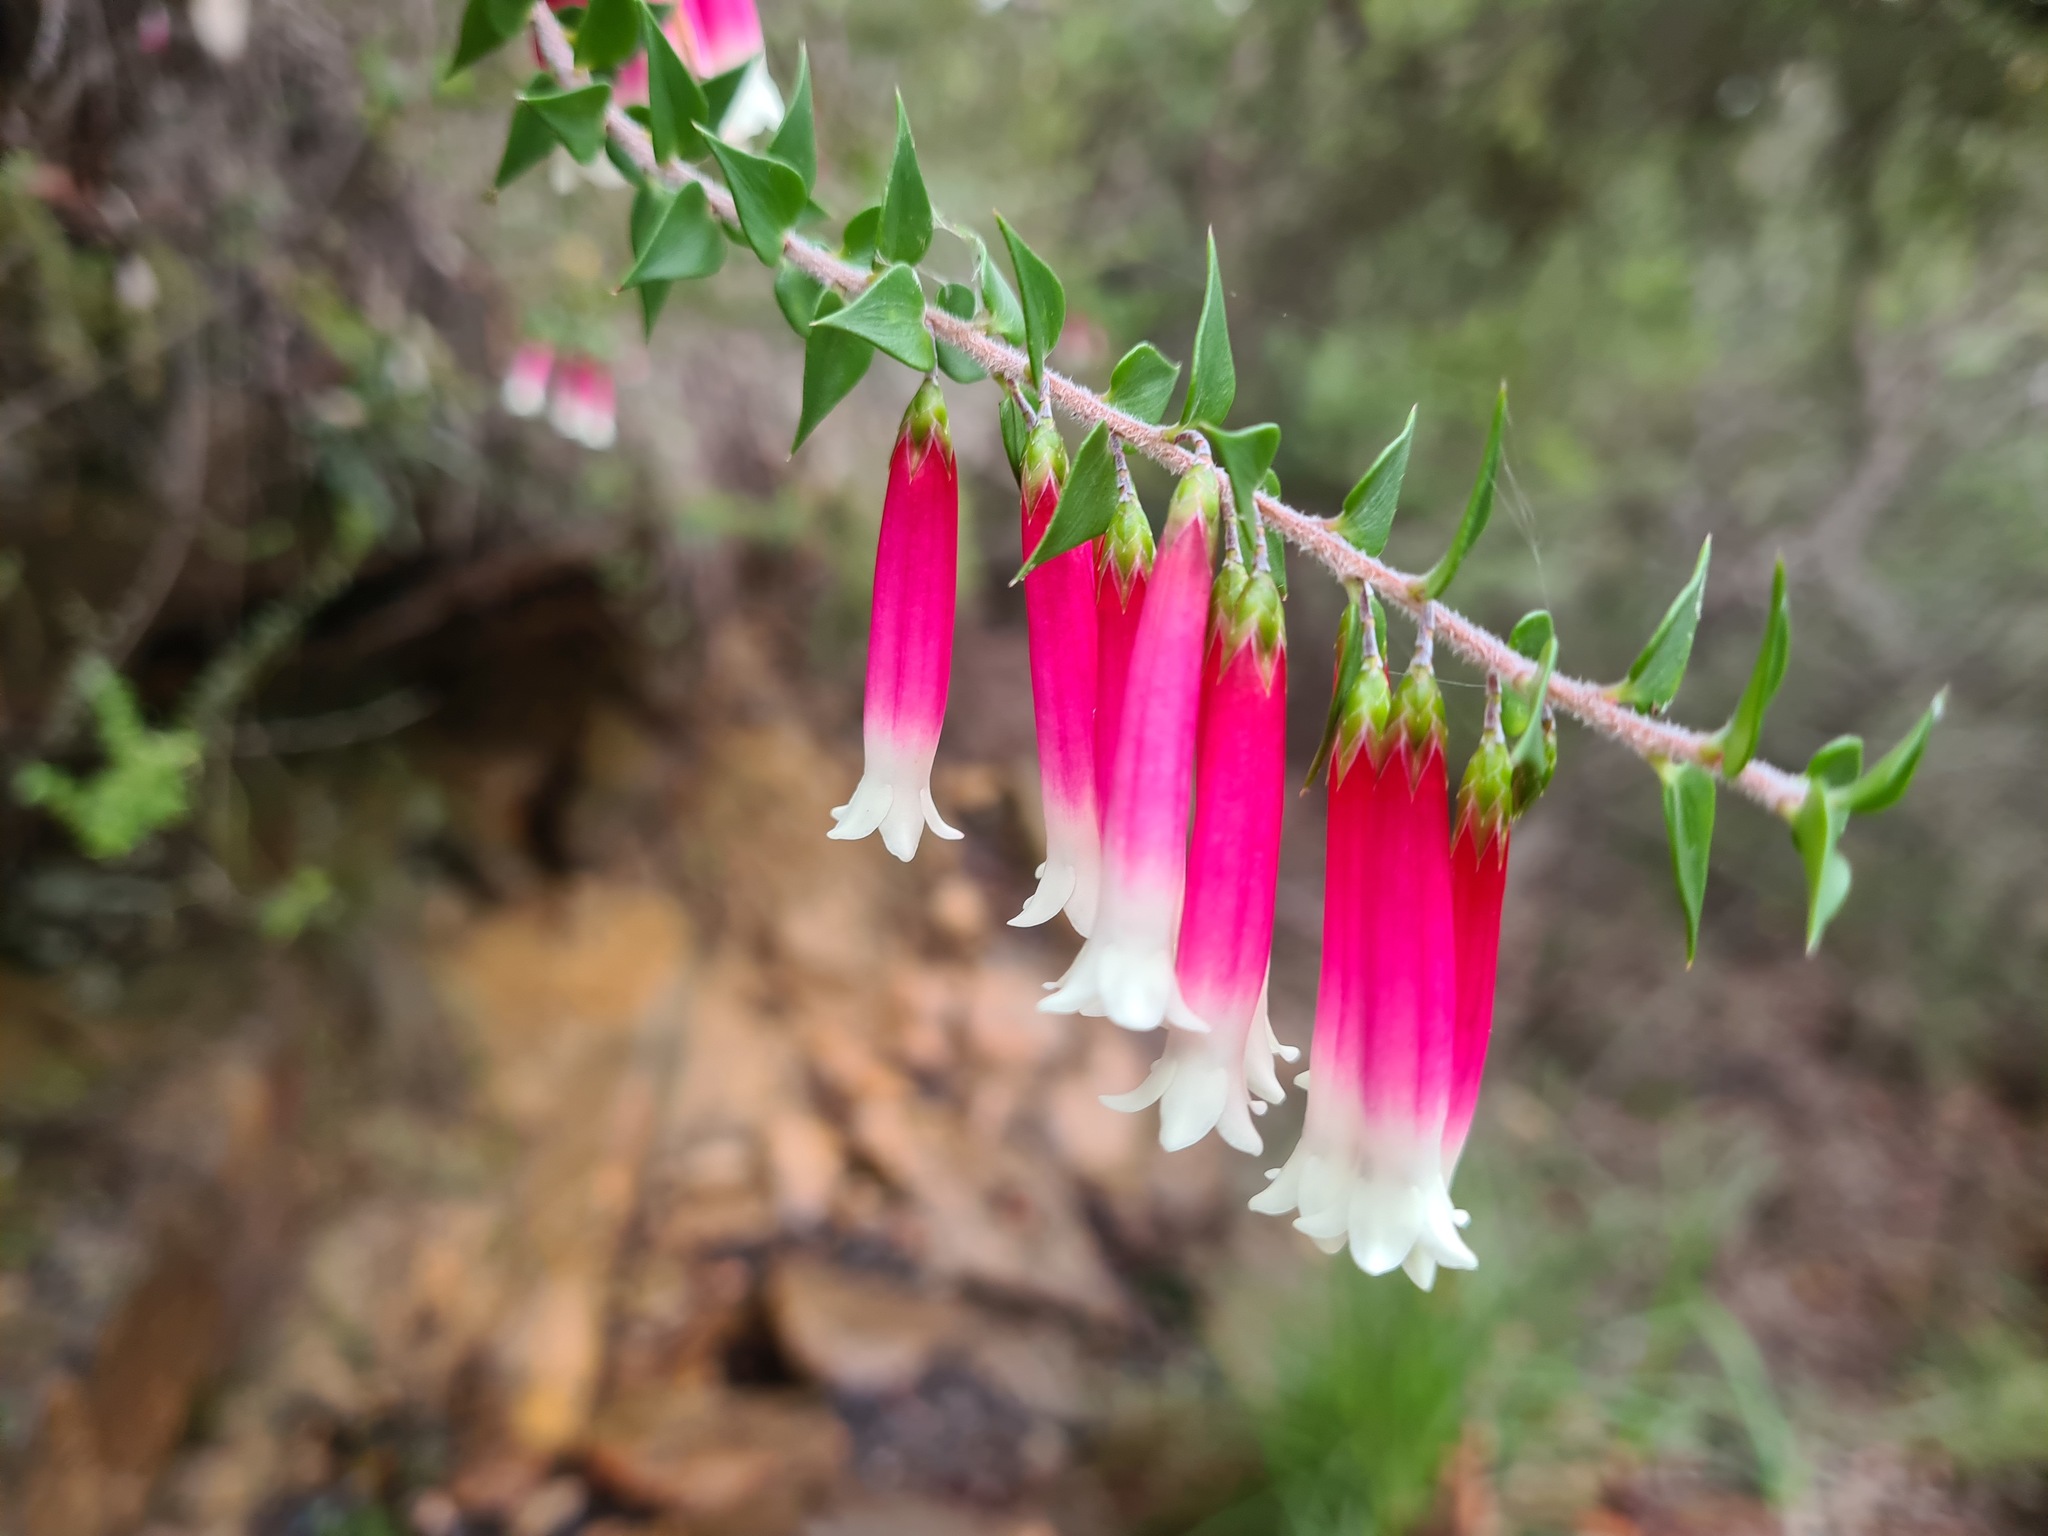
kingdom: Plantae
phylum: Tracheophyta
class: Magnoliopsida
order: Ericales
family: Ericaceae
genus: Epacris
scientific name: Epacris longiflora
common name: Fuchsia-heath
